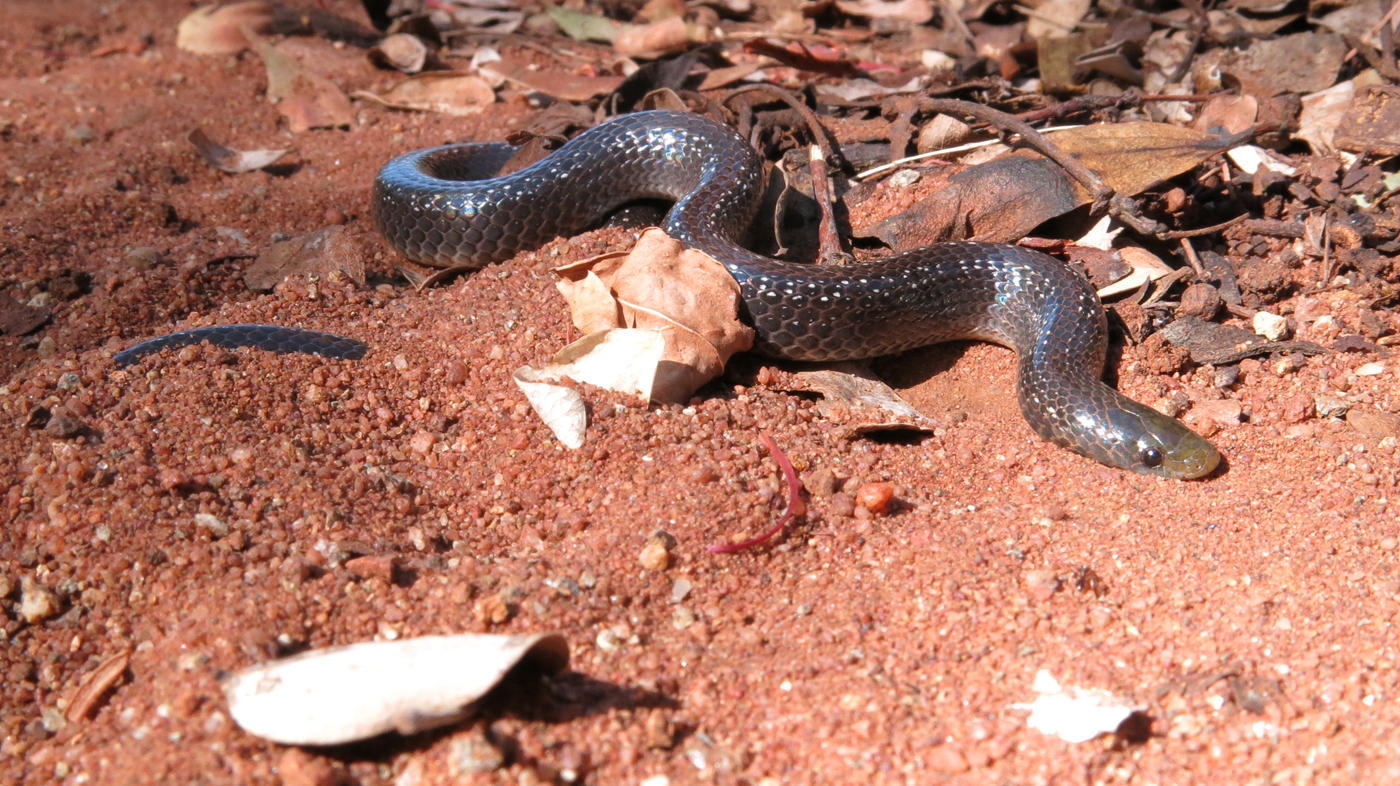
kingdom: Animalia
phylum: Chordata
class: Squamata
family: Prosymnidae
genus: Prosymna
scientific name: Prosymna stuhlmanni
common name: East african shovel-snout snake
